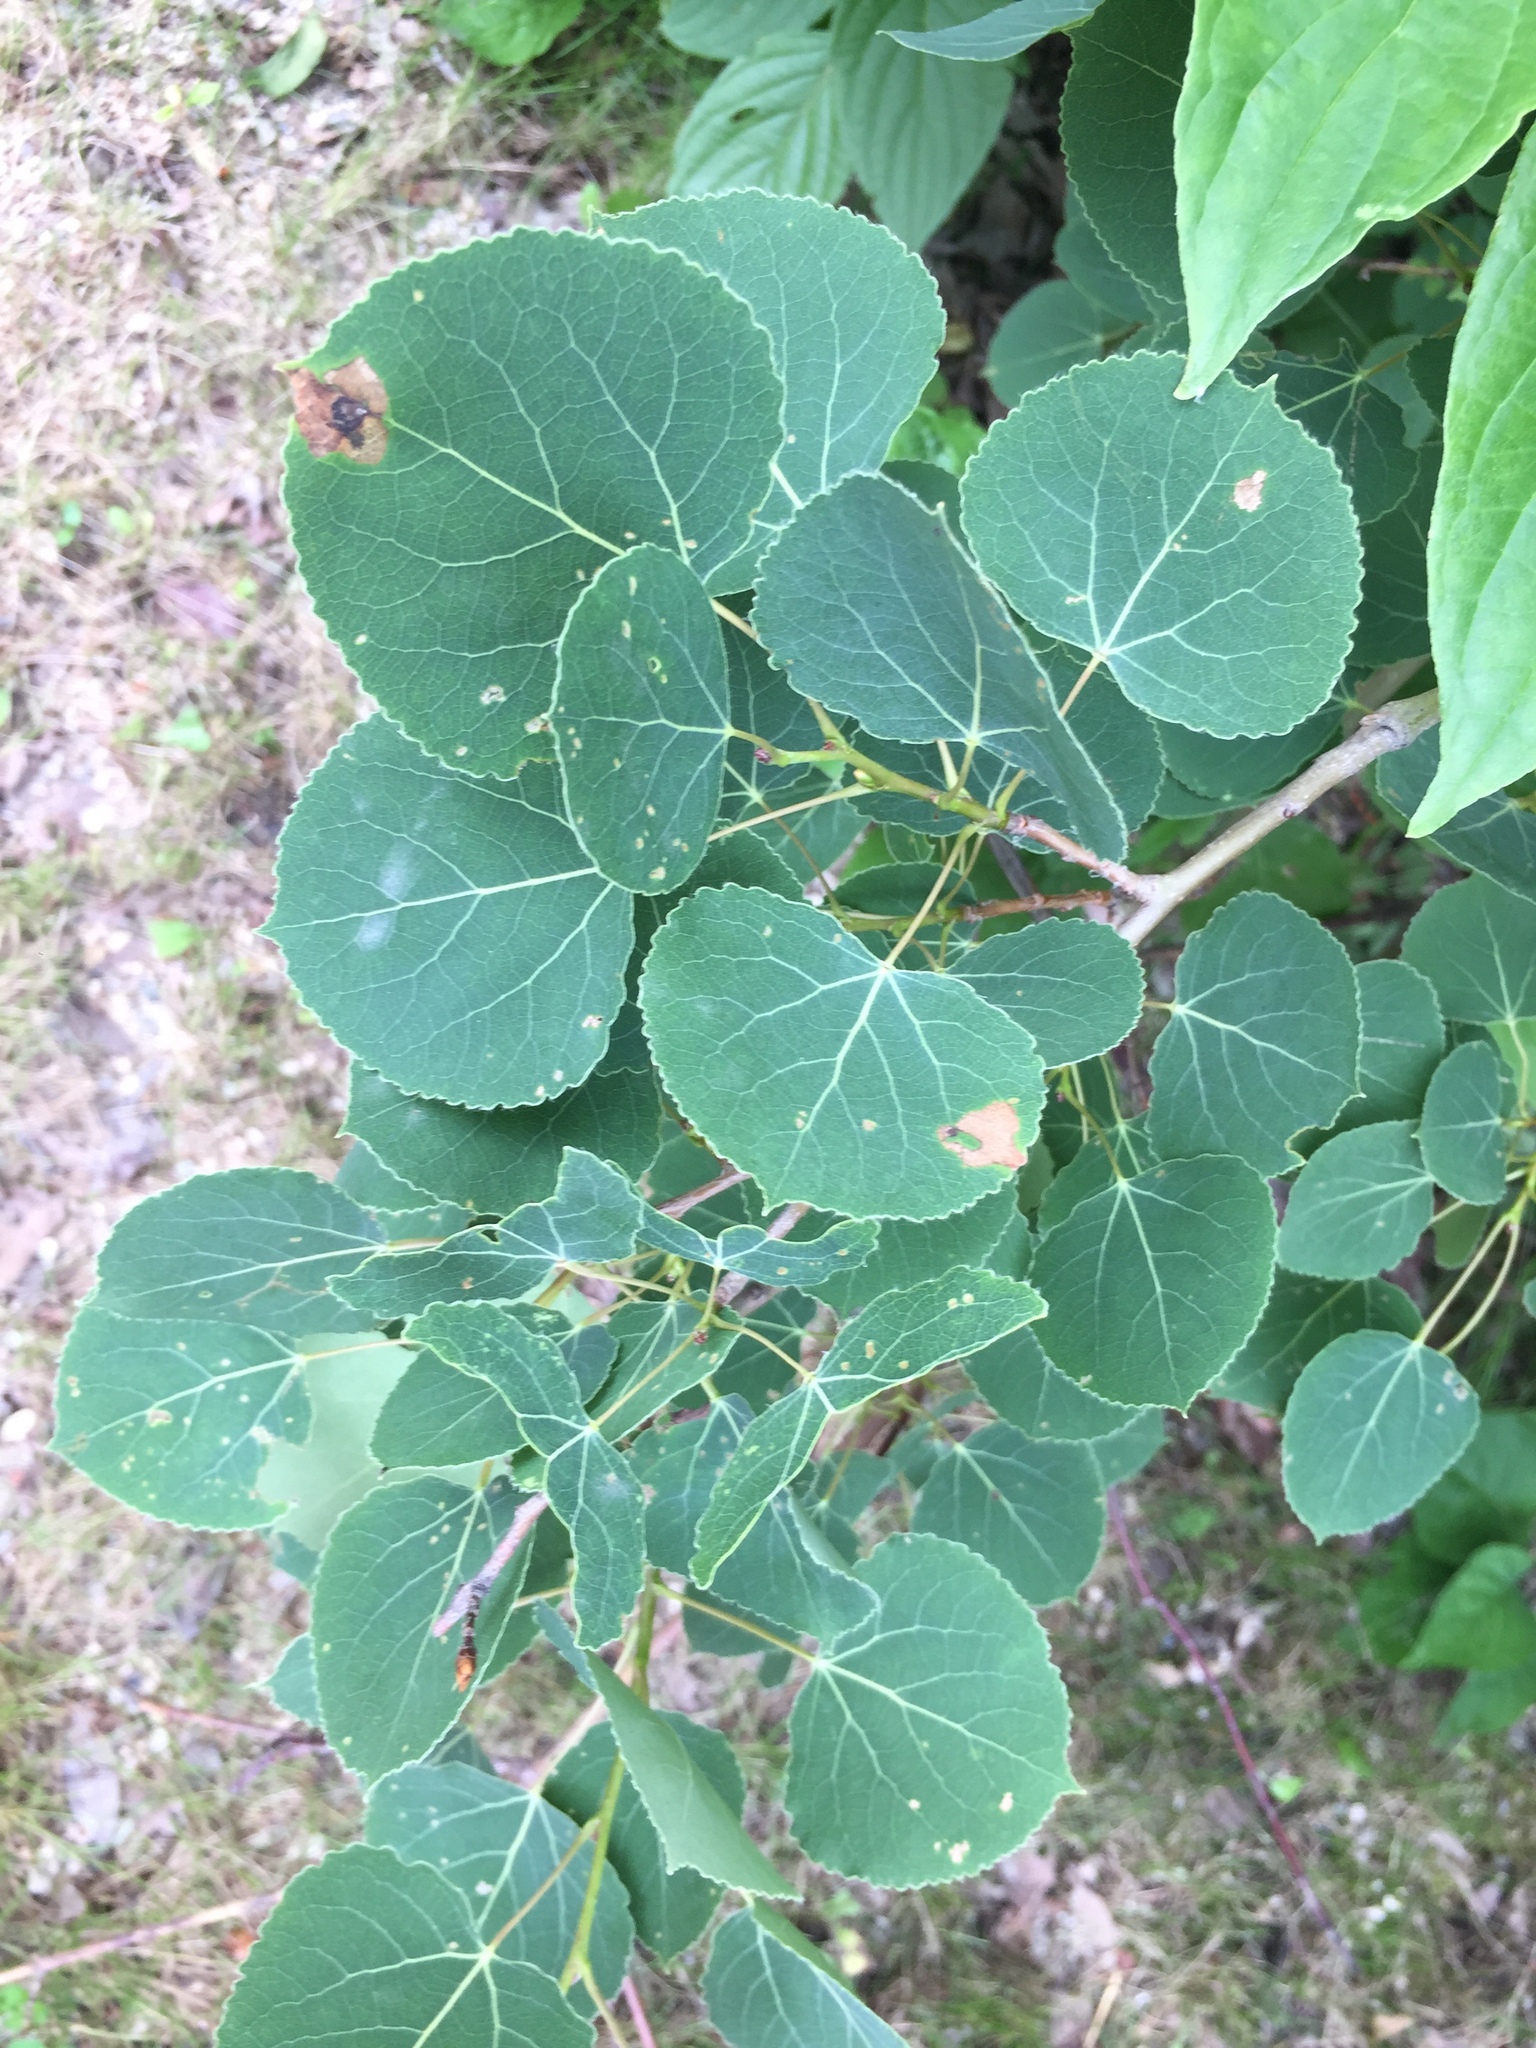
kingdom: Plantae
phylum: Tracheophyta
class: Magnoliopsida
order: Malpighiales
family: Salicaceae
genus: Populus
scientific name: Populus tremuloides
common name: Quaking aspen
